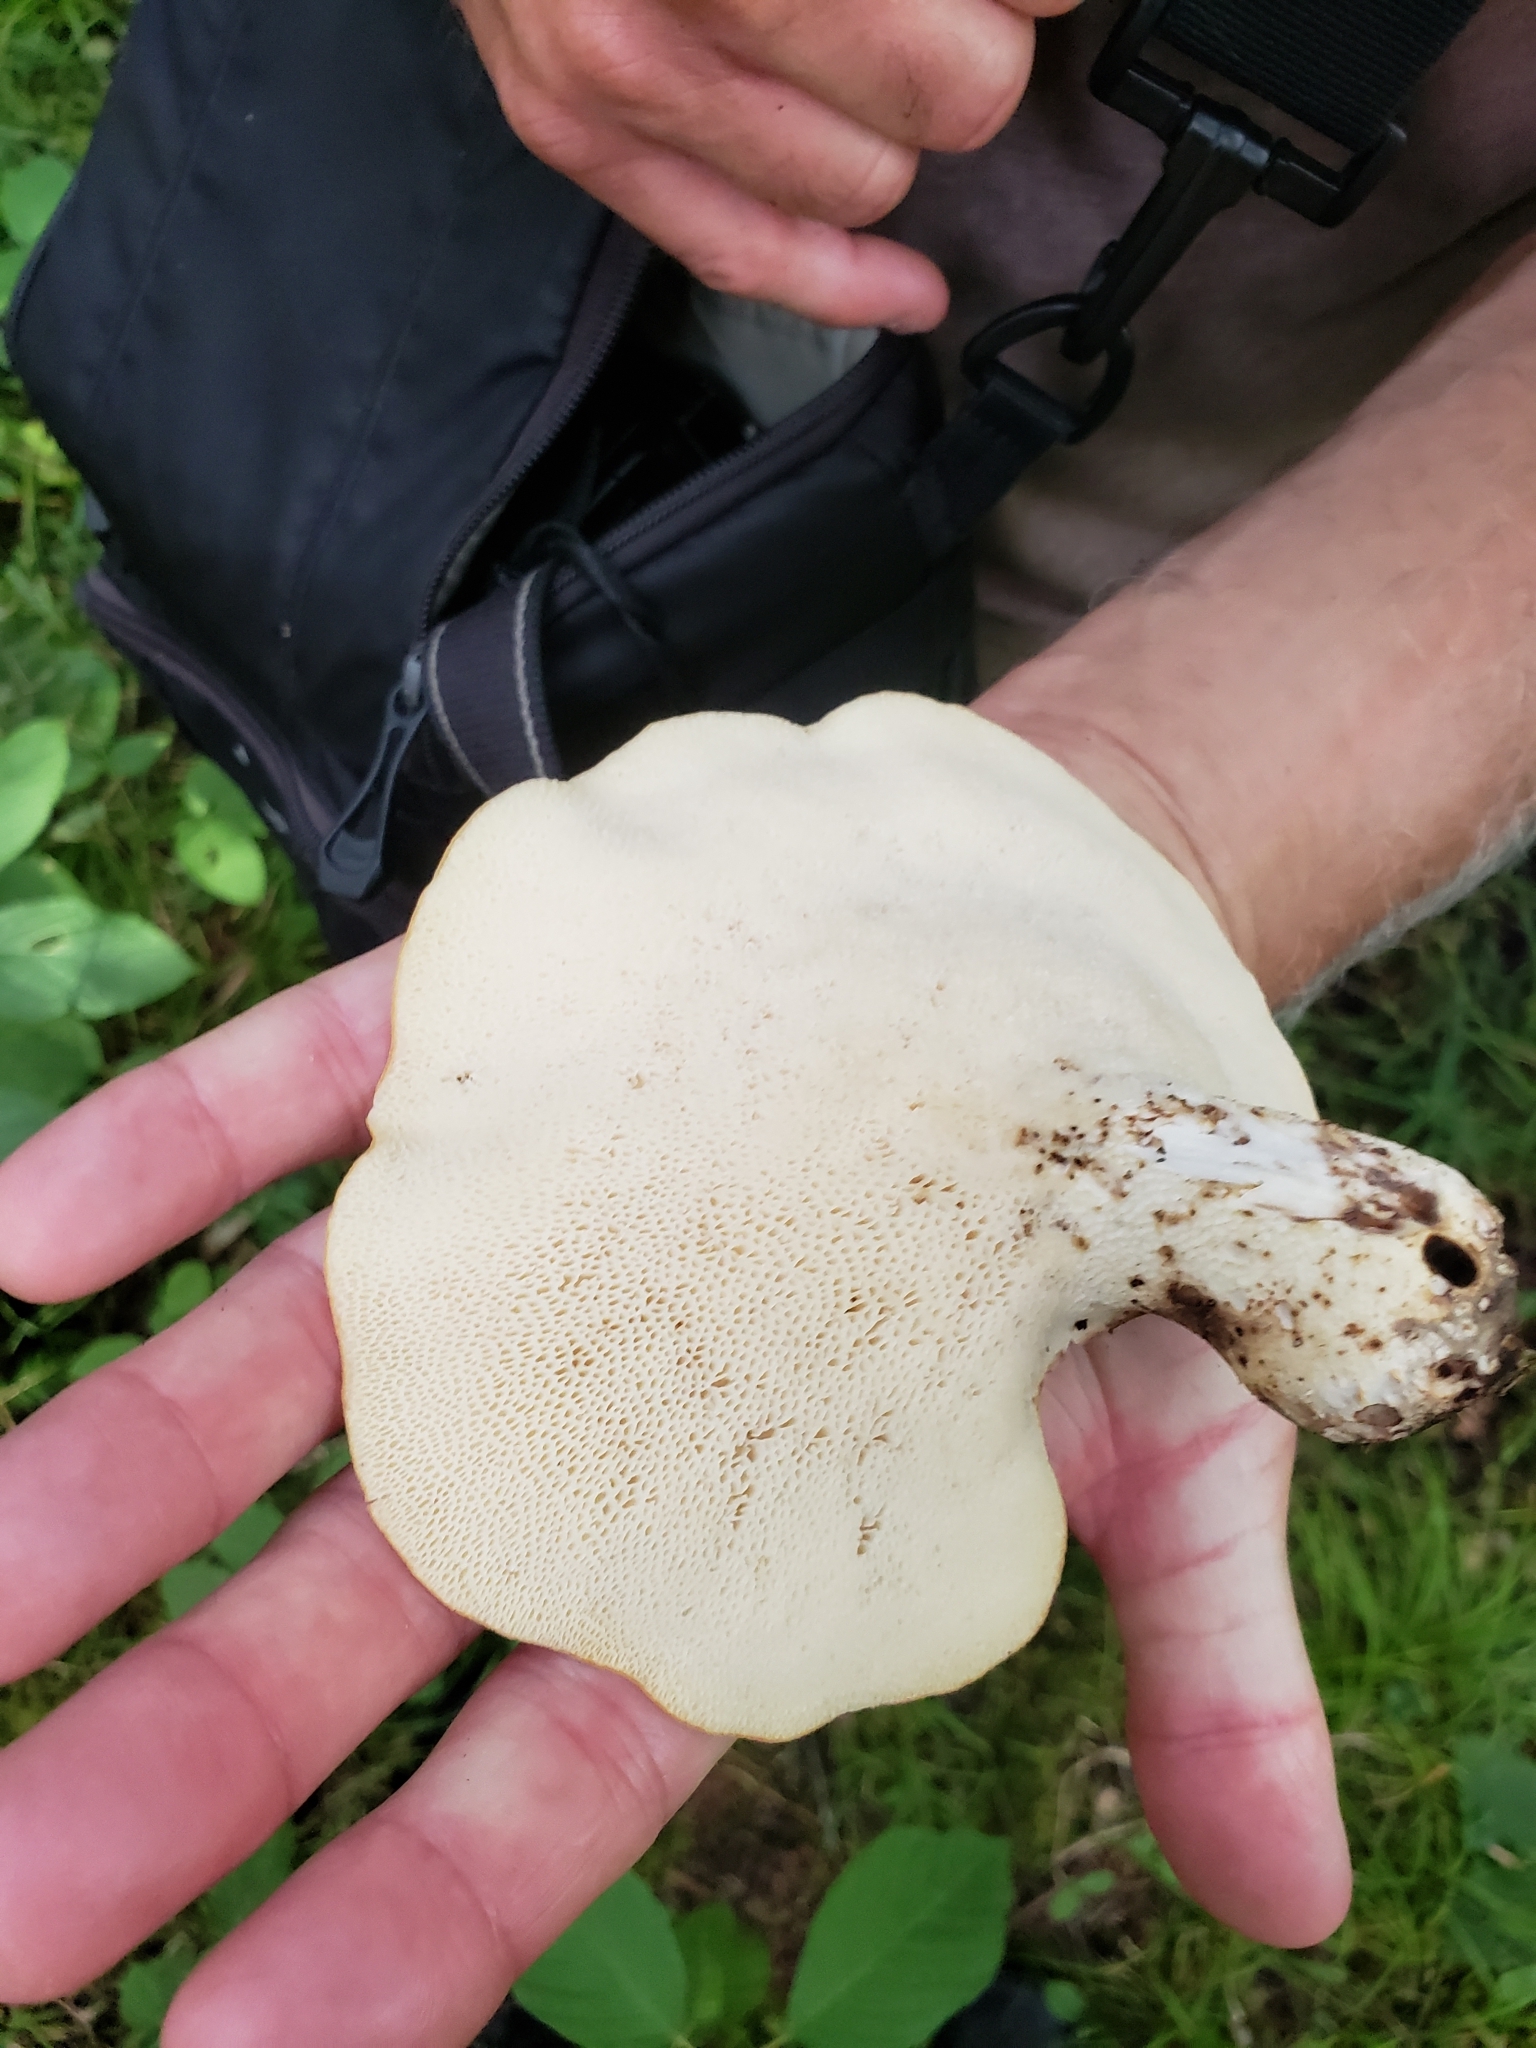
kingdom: Fungi
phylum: Basidiomycota
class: Agaricomycetes
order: Polyporales
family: Polyporaceae
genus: Cerioporus
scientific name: Cerioporus squamosus
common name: Dryad's saddle
